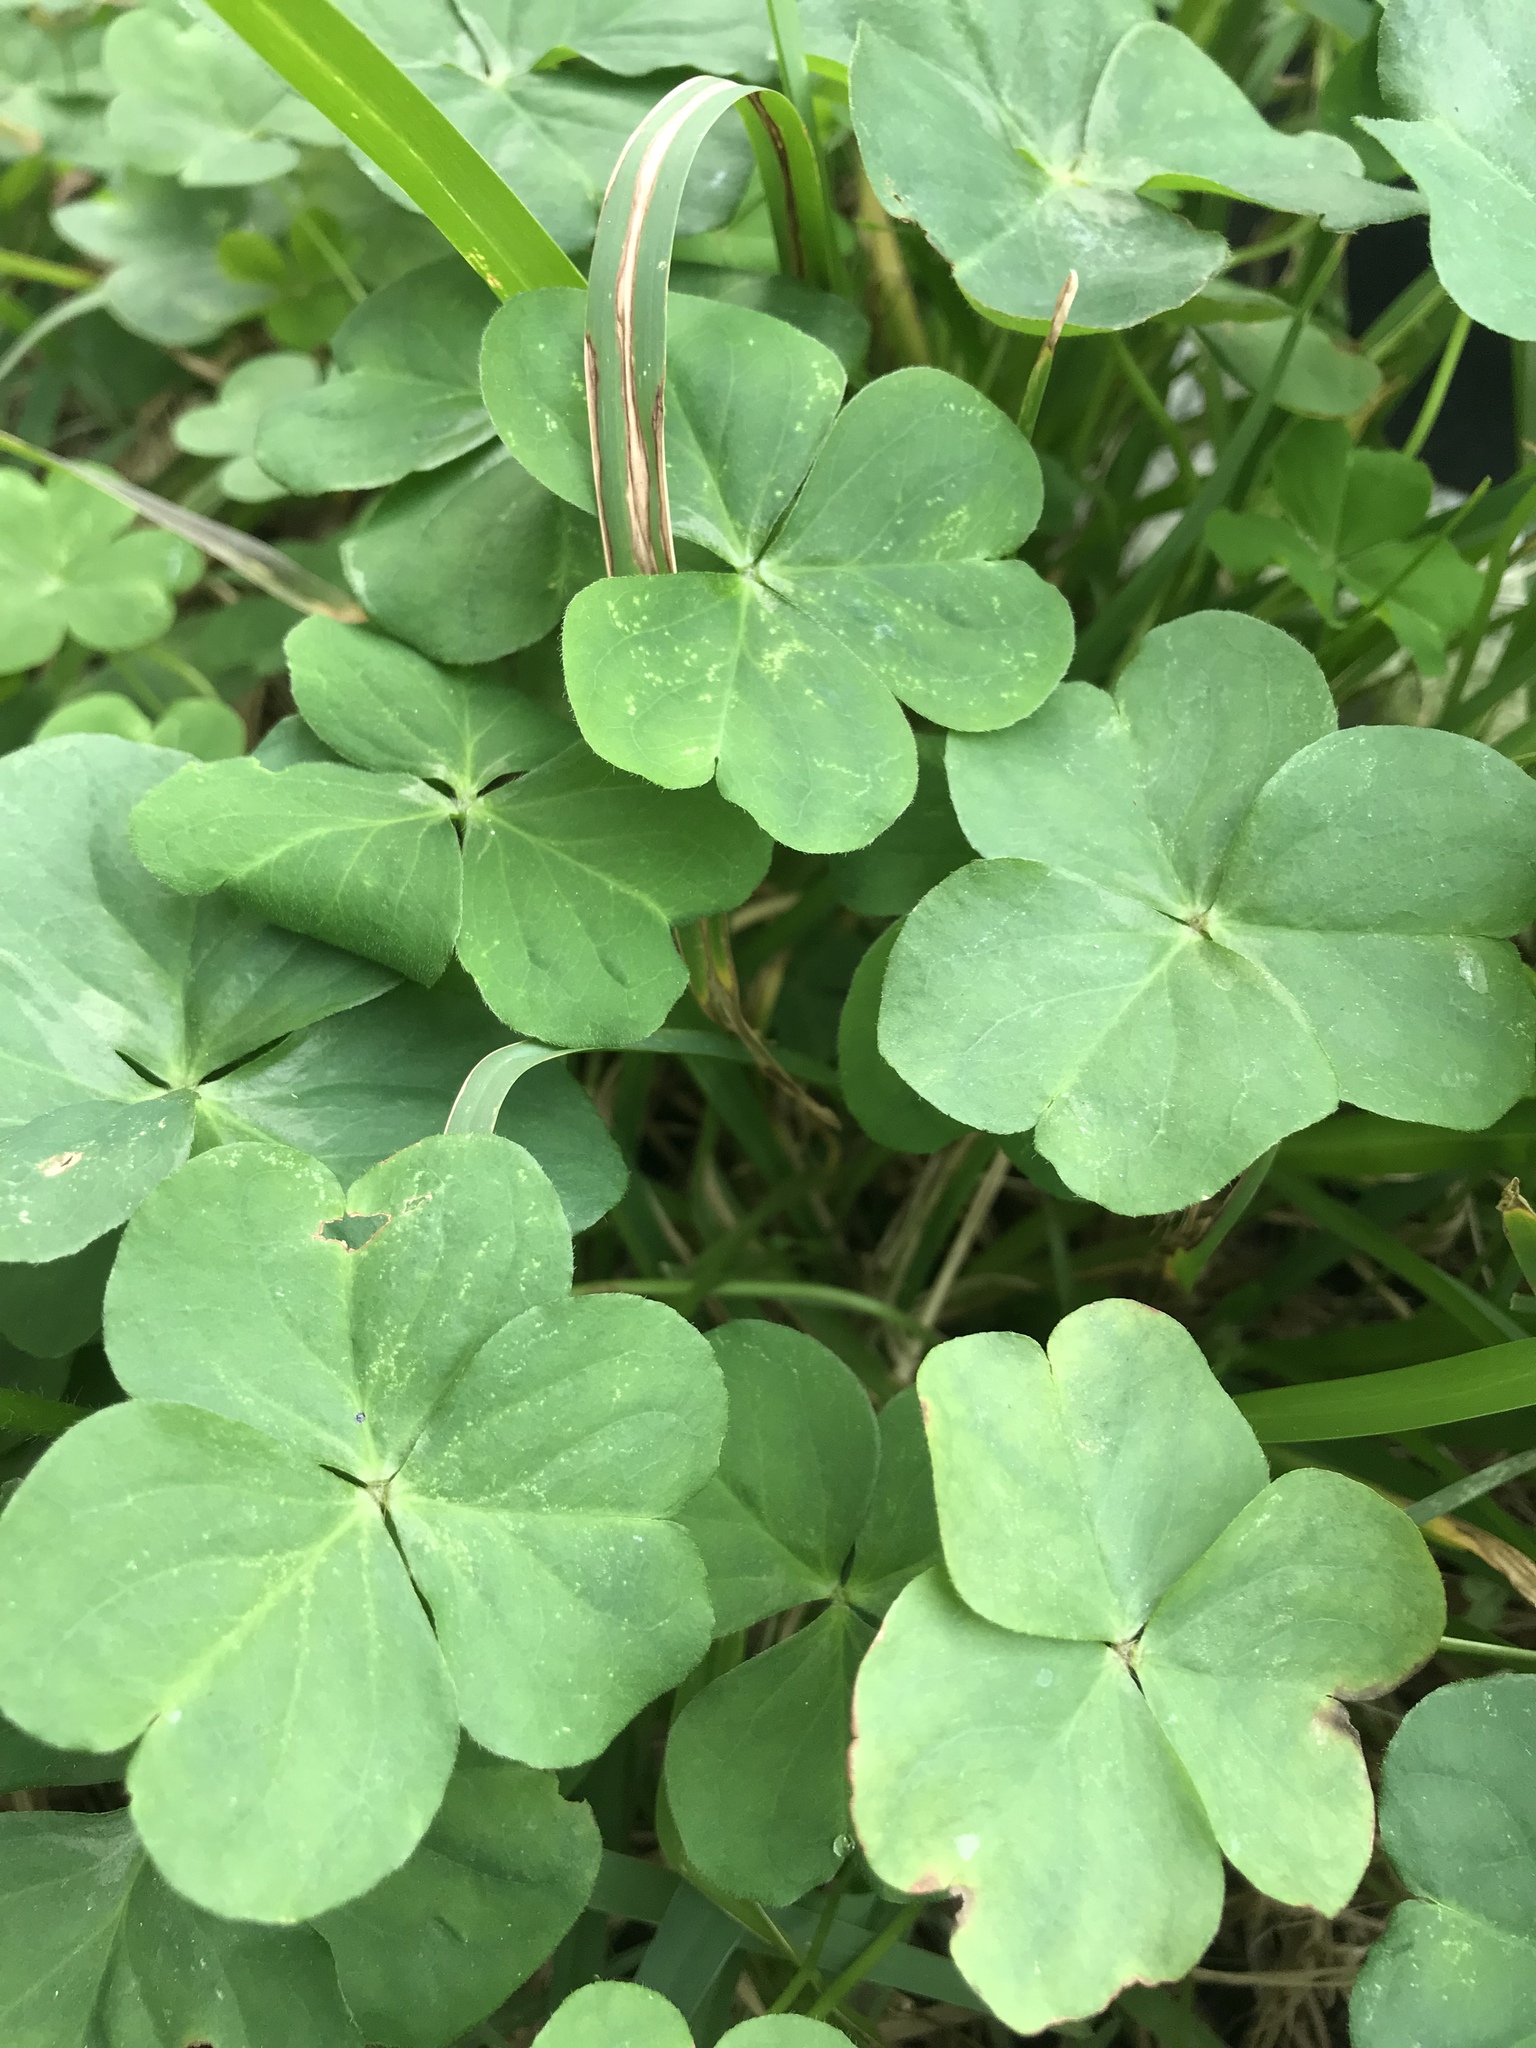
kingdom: Plantae
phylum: Tracheophyta
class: Magnoliopsida
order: Oxalidales
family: Oxalidaceae
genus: Oxalis
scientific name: Oxalis debilis
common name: Large-flowered pink-sorrel
